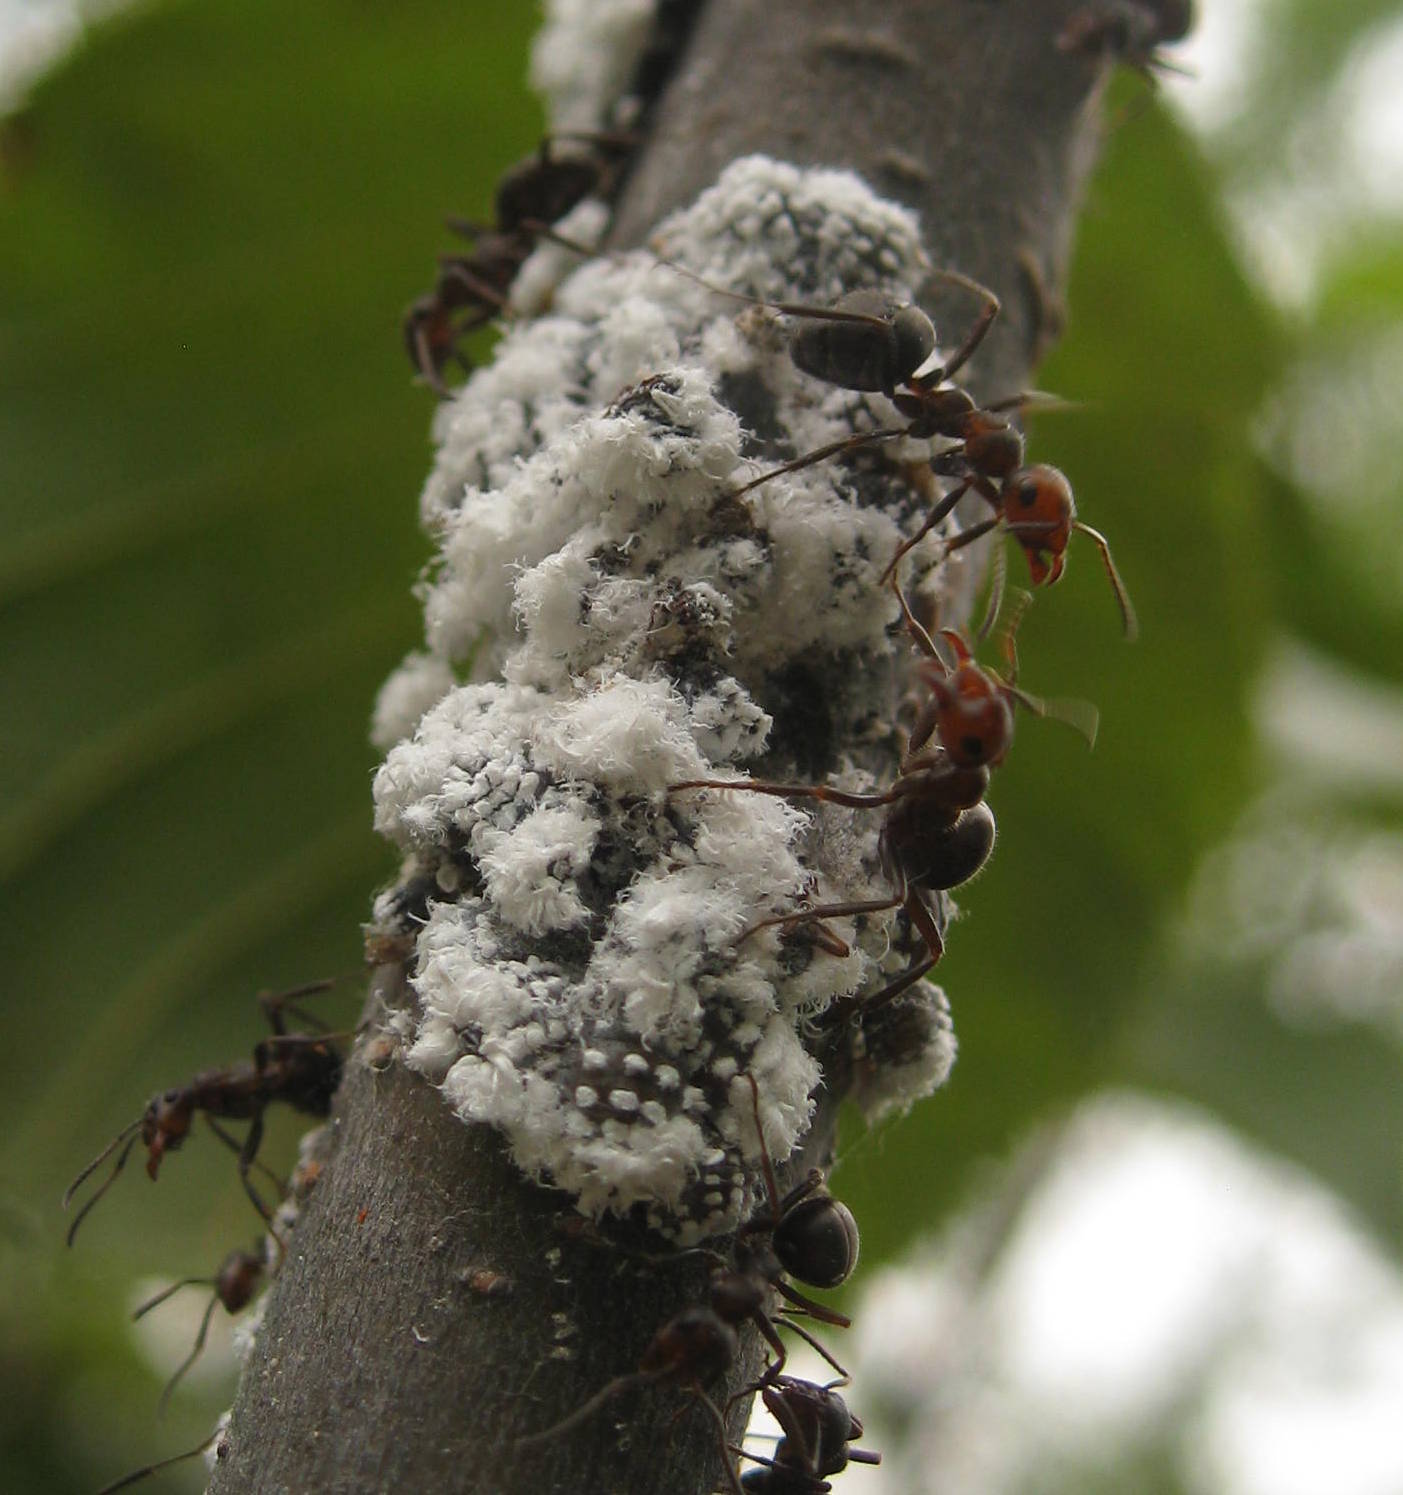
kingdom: Animalia
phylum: Arthropoda
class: Insecta
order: Hemiptera
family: Aphididae
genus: Prociphilus
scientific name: Prociphilus tessellatus
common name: Woolly alder aphid
